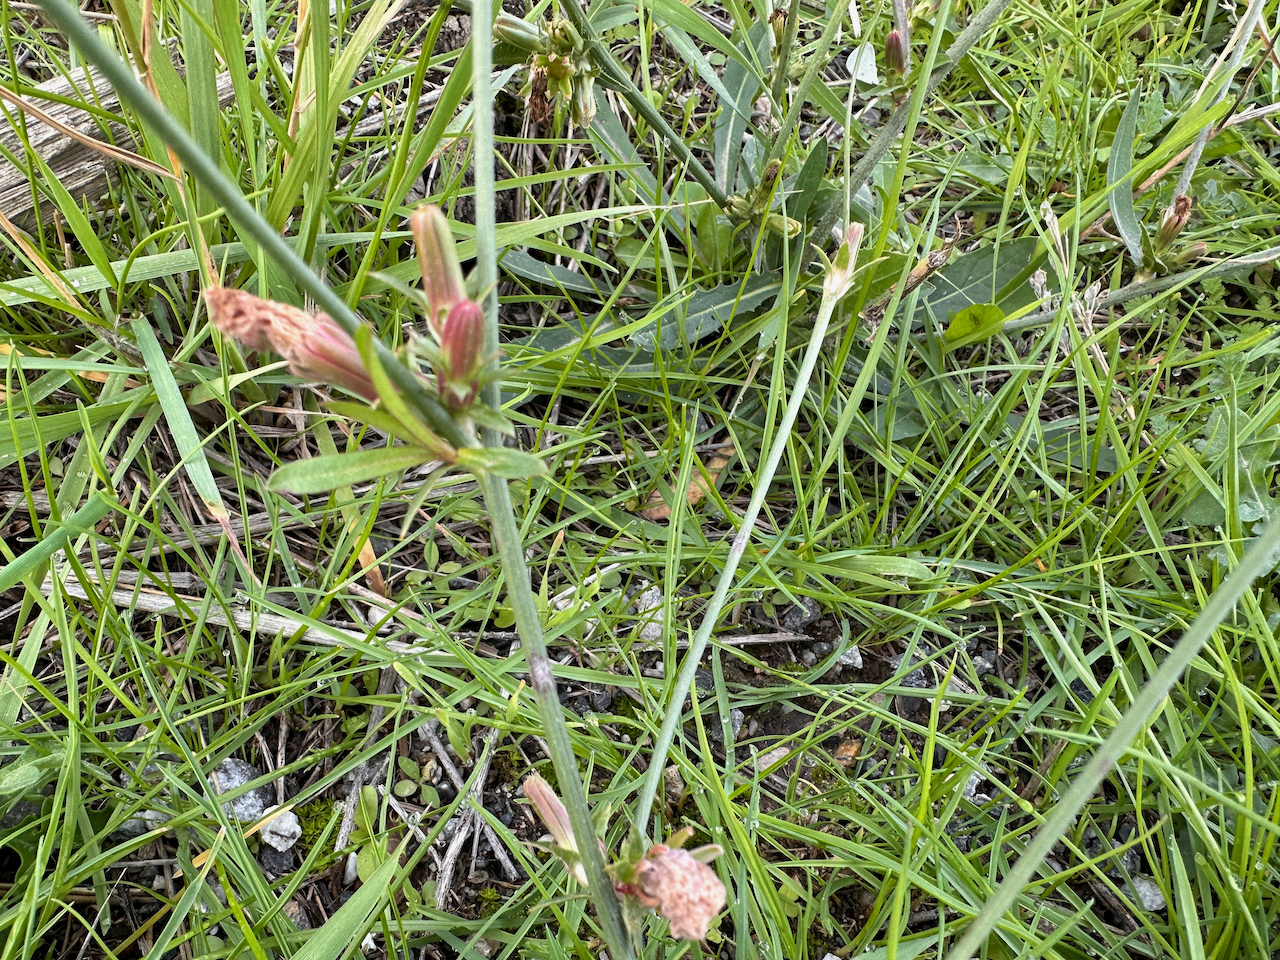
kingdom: Plantae
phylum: Tracheophyta
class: Magnoliopsida
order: Asterales
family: Asteraceae
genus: Cichorium
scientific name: Cichorium intybus
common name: Chicory
